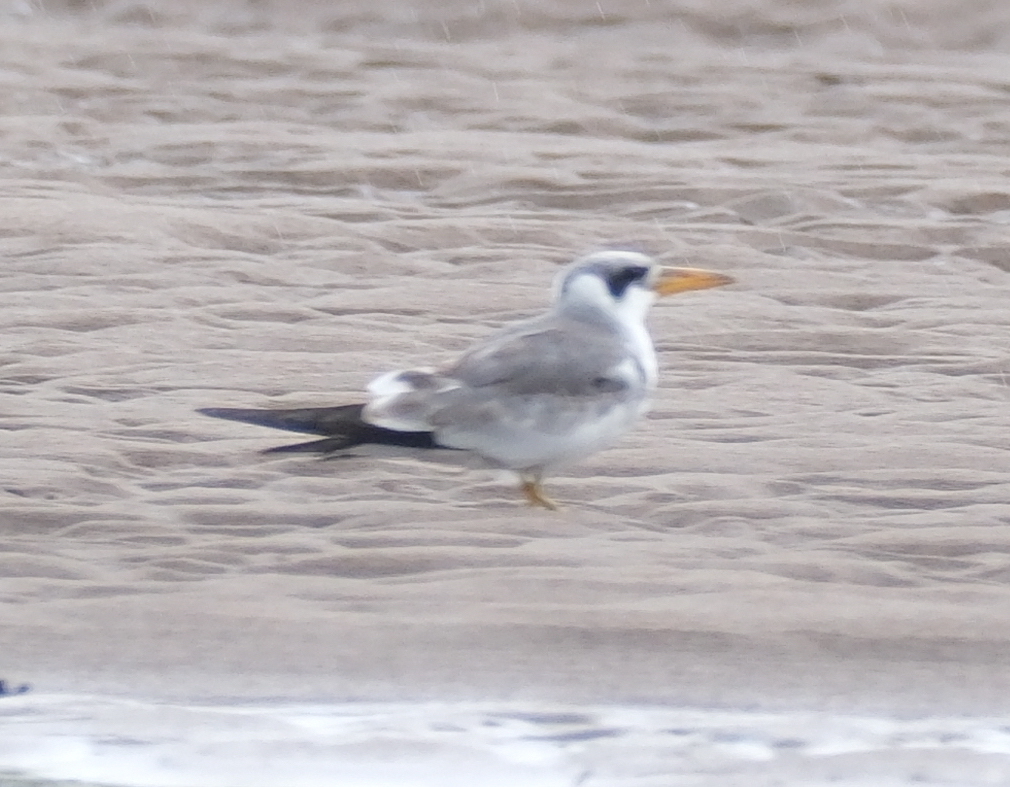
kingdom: Animalia
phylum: Chordata
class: Aves
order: Charadriiformes
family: Laridae
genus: Phaetusa
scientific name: Phaetusa simplex
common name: Large-billed tern
